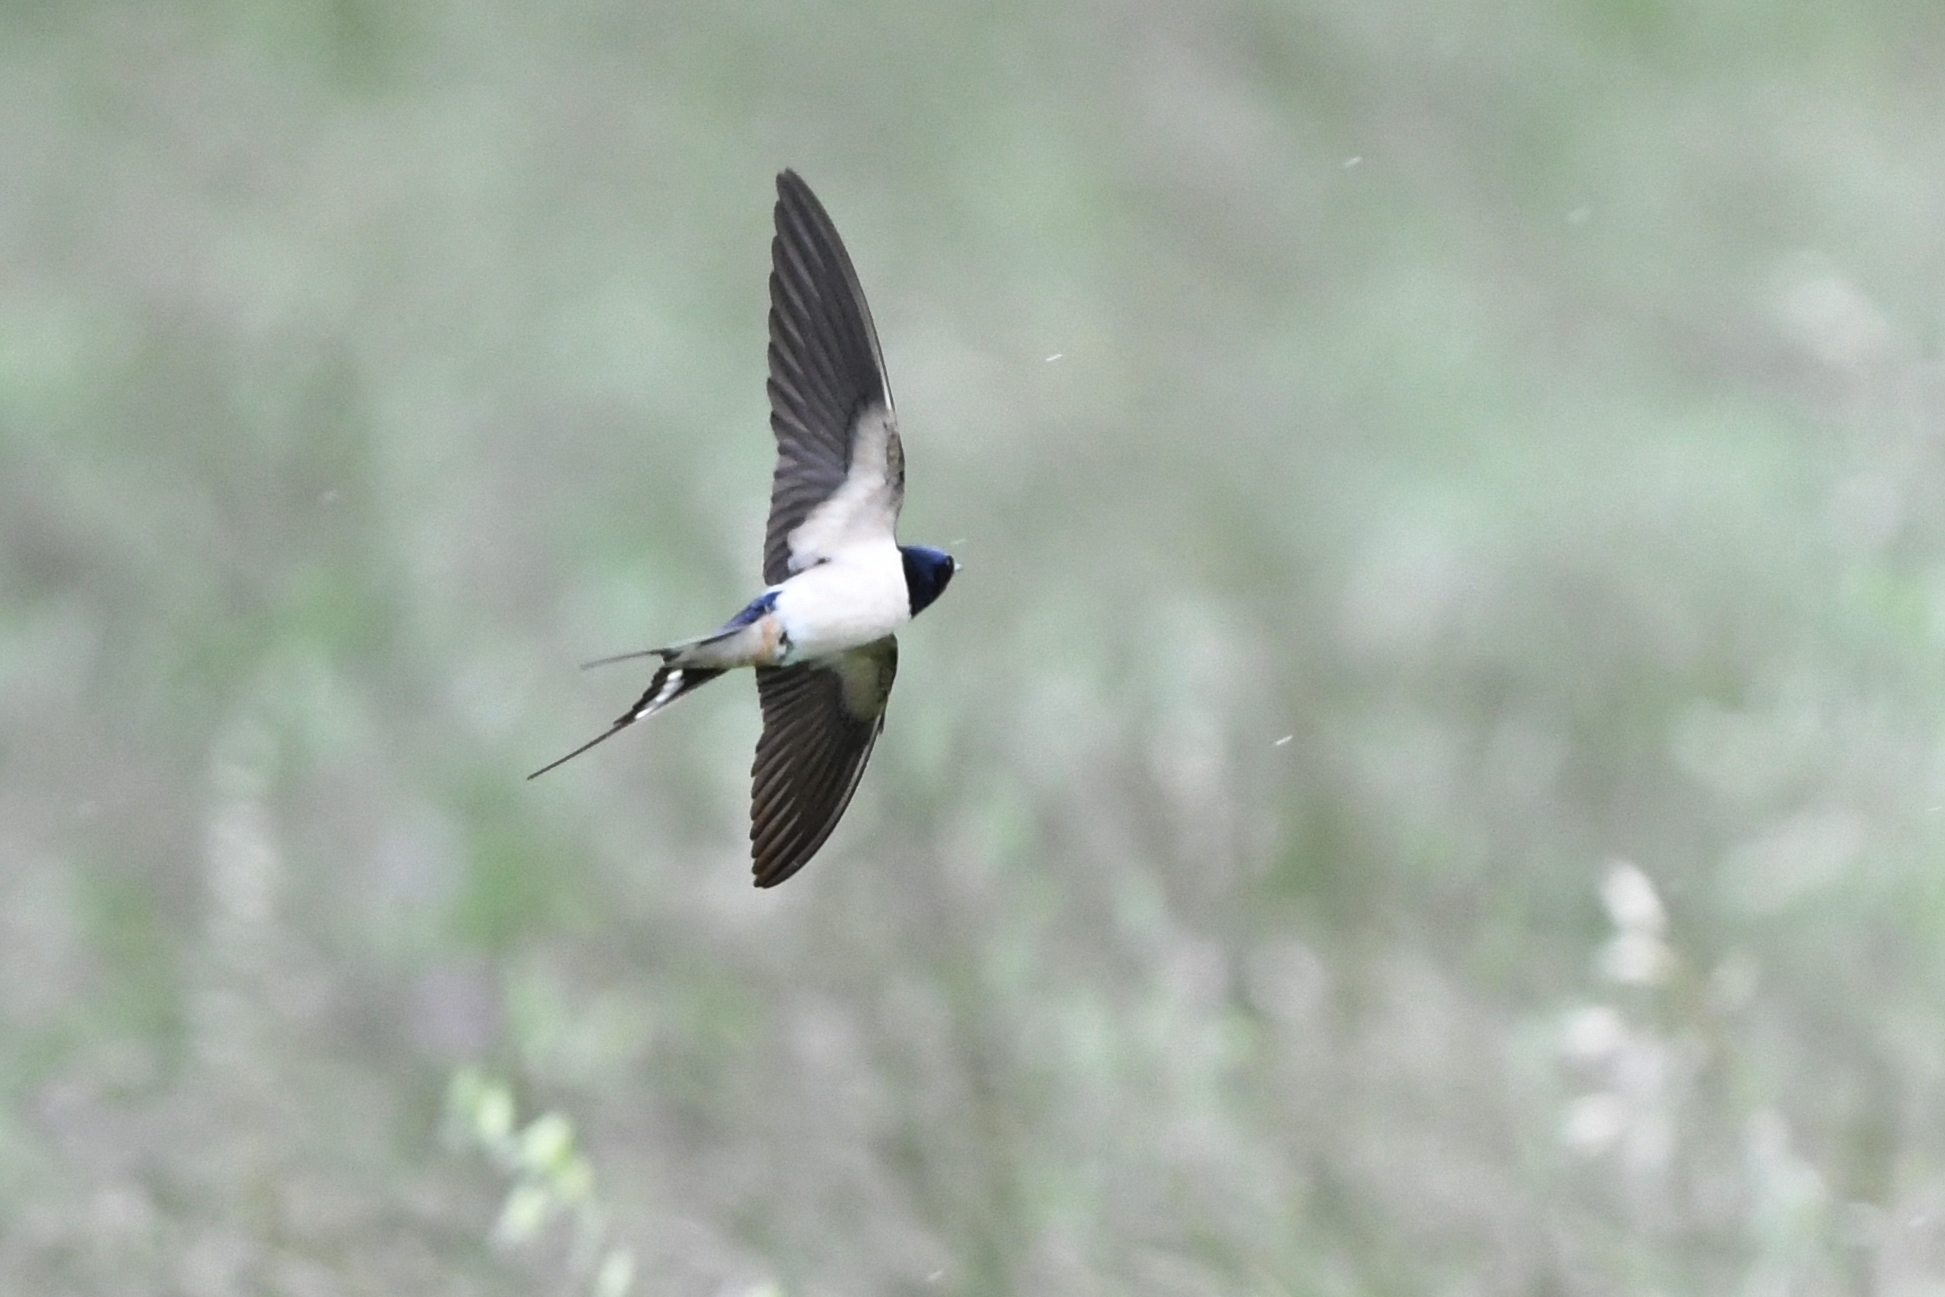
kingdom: Animalia
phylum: Chordata
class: Aves
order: Passeriformes
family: Hirundinidae
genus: Hirundo
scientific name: Hirundo rustica
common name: Barn swallow
